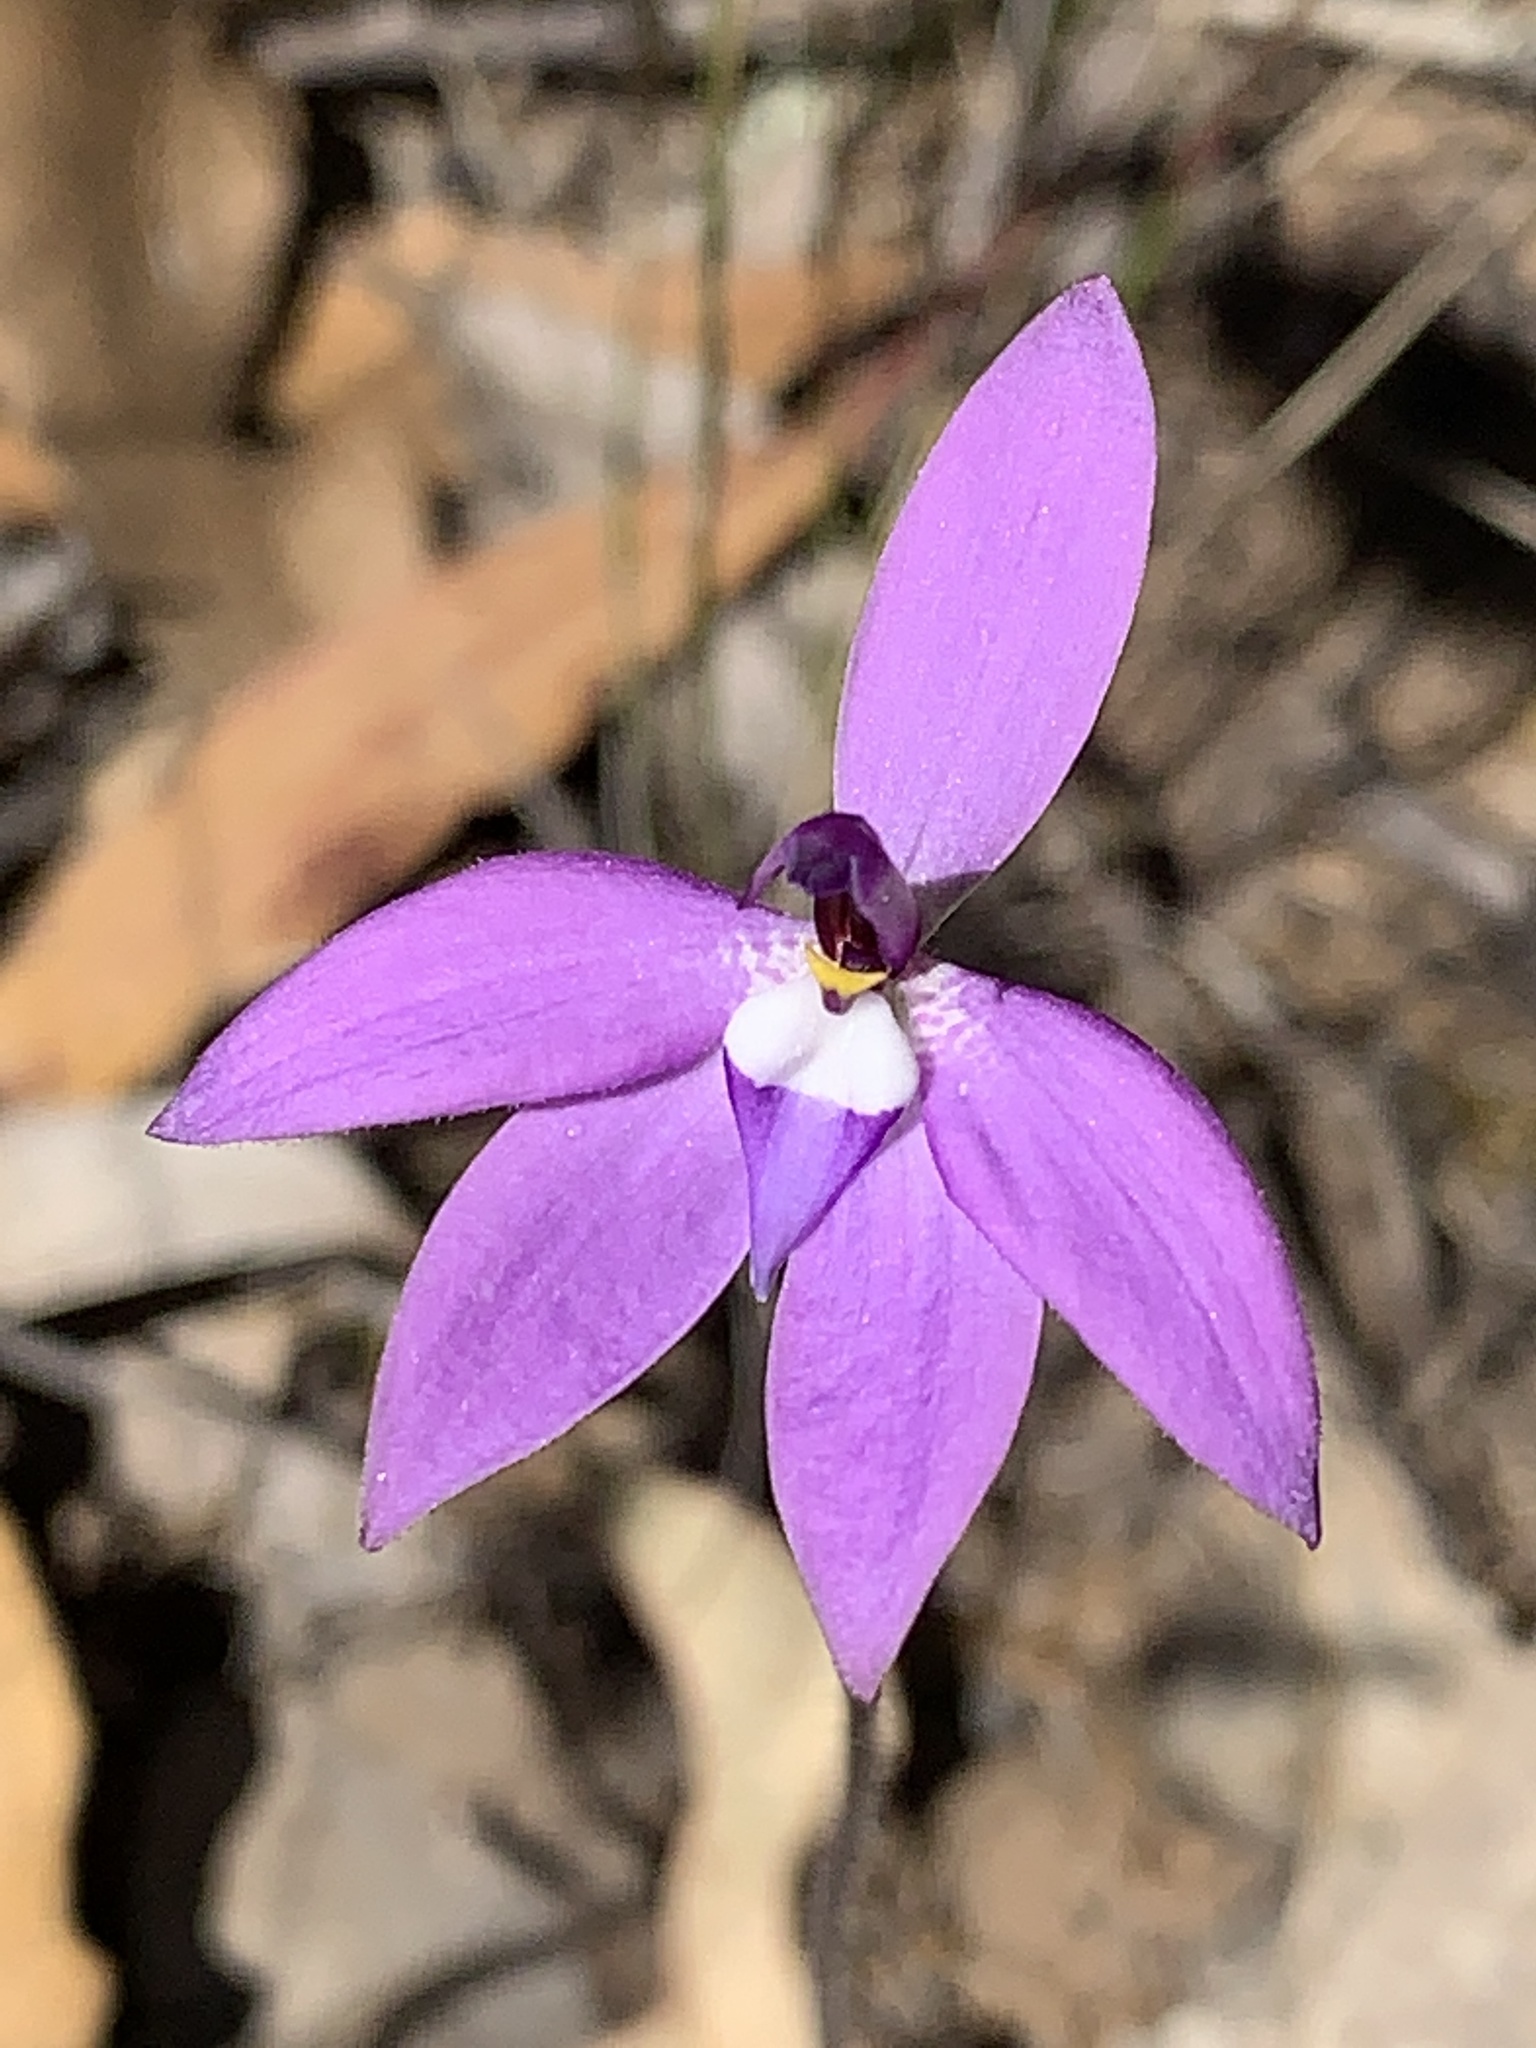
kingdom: Plantae
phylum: Tracheophyta
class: Liliopsida
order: Asparagales
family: Orchidaceae
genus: Caladenia
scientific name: Caladenia major
